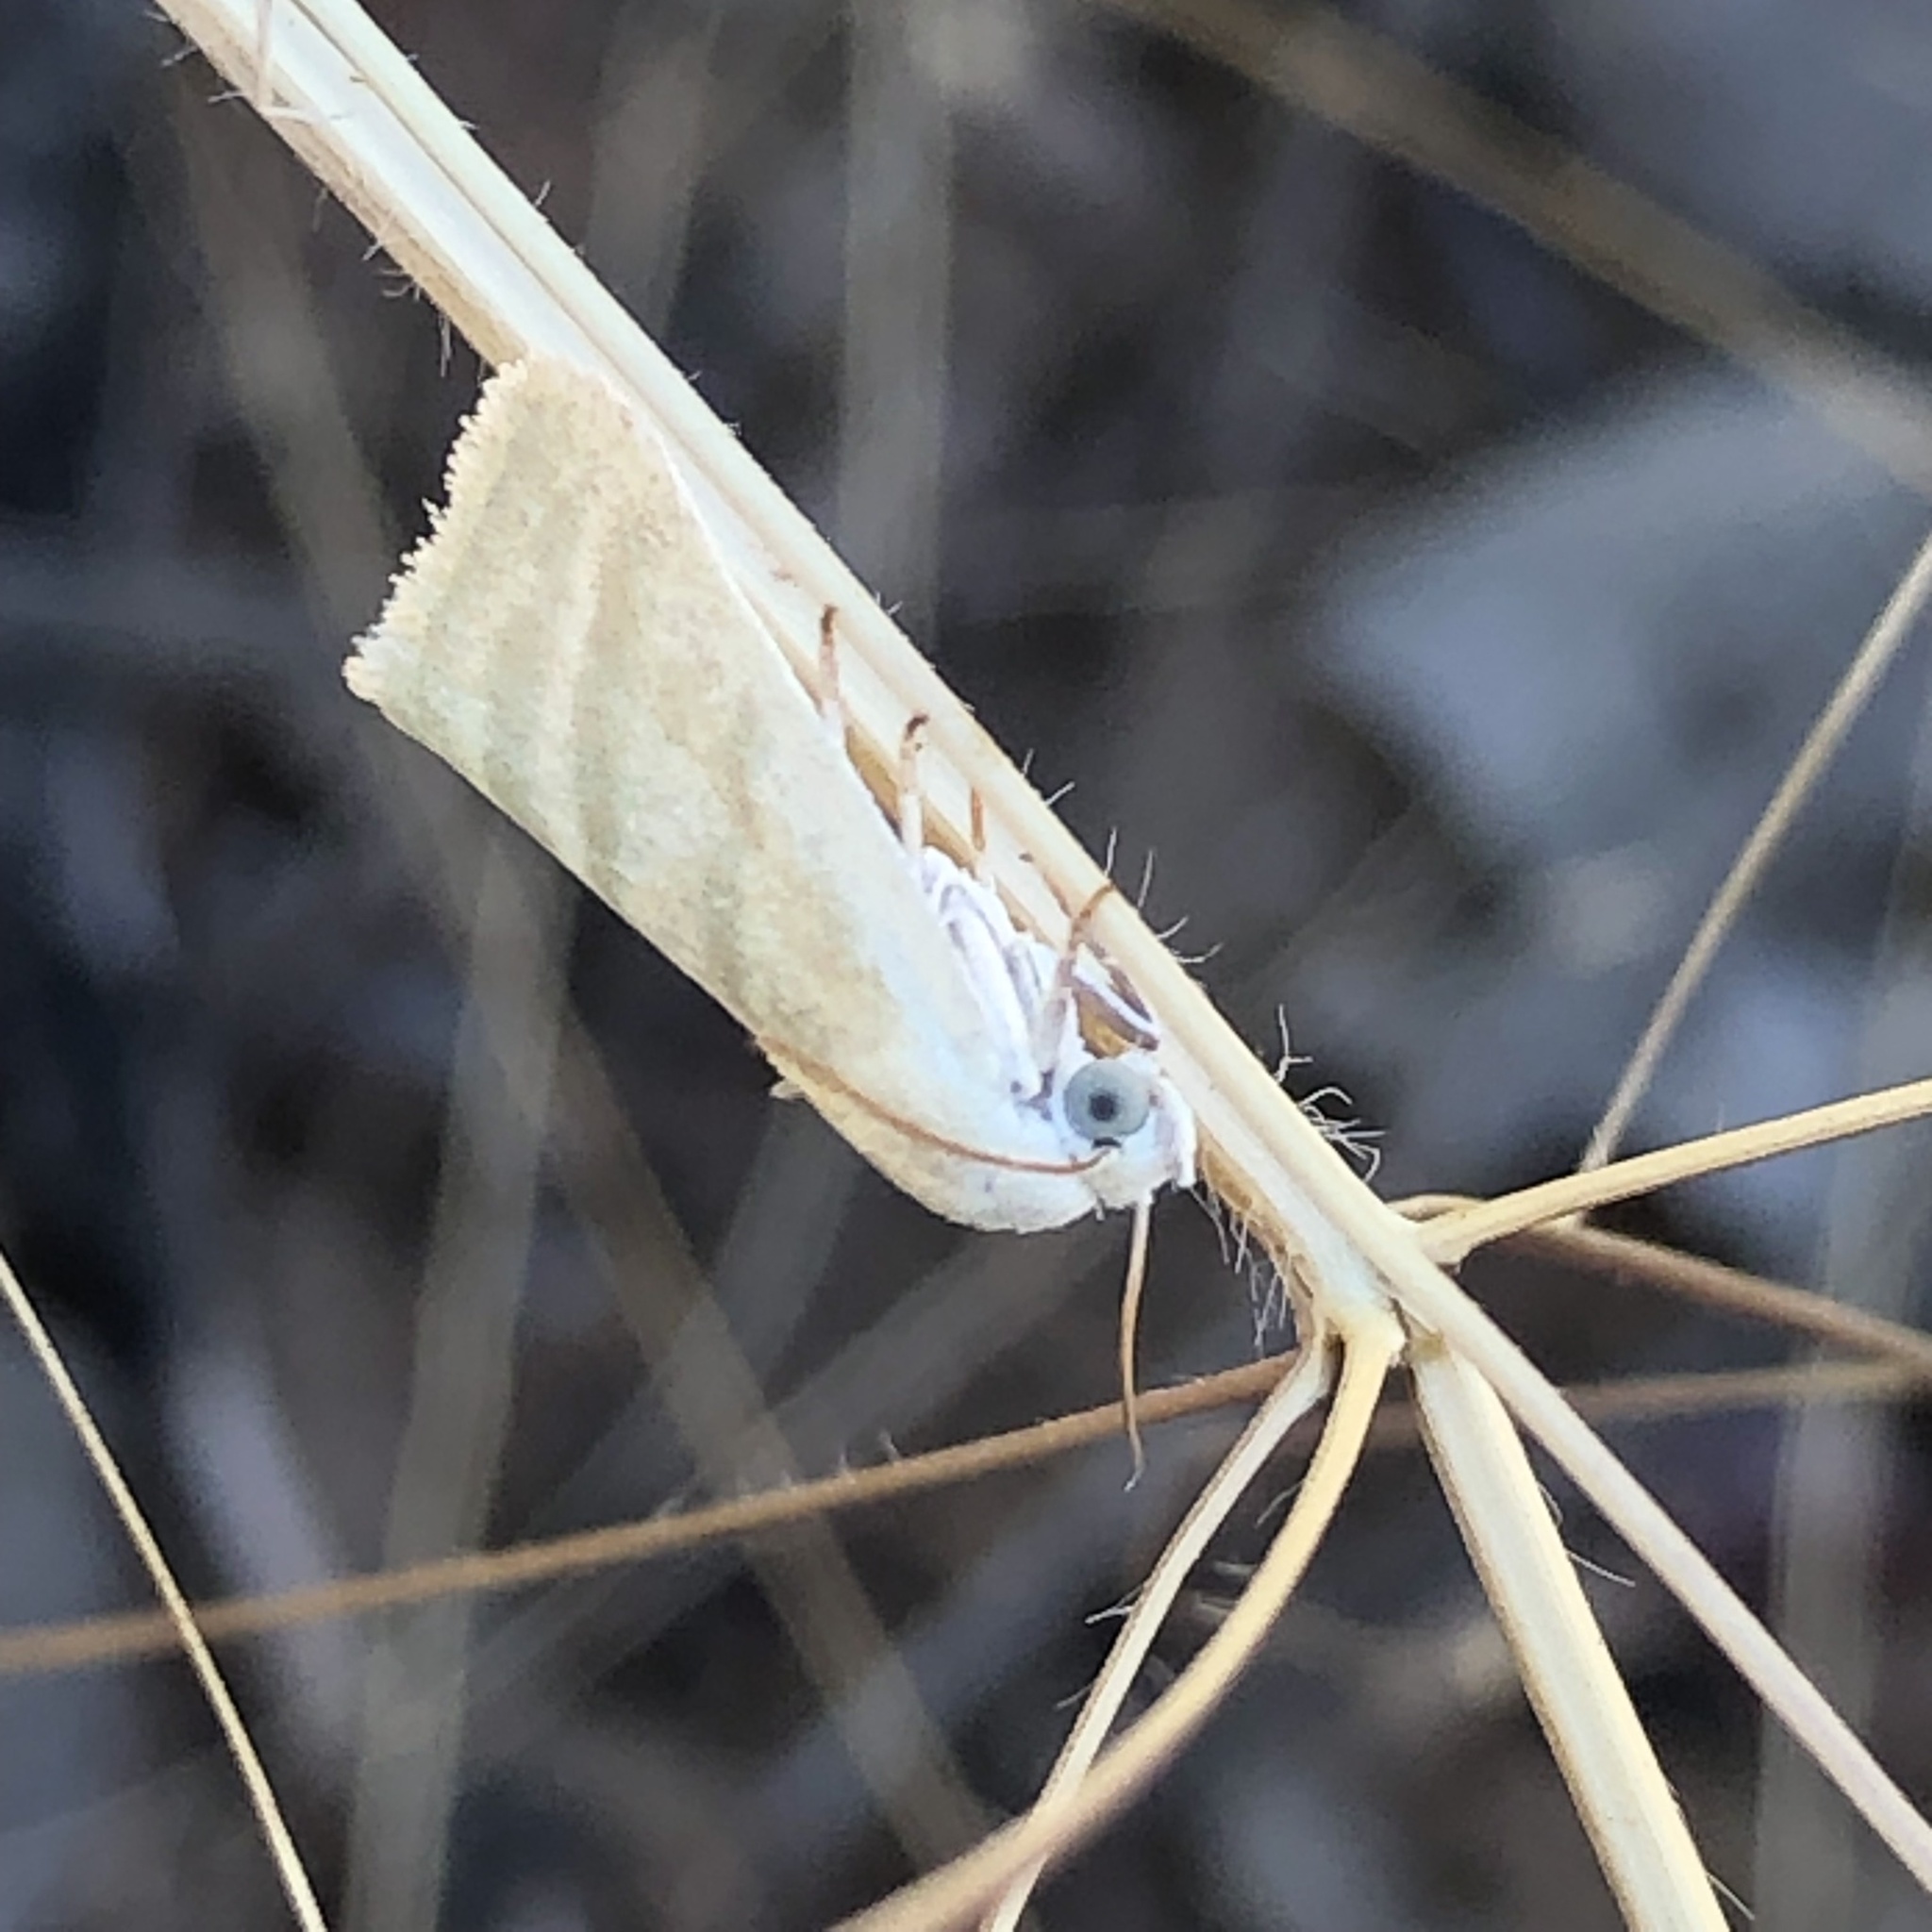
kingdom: Animalia
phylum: Arthropoda
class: Insecta
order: Lepidoptera
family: Nolidae
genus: Earias
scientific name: Earias paralella
